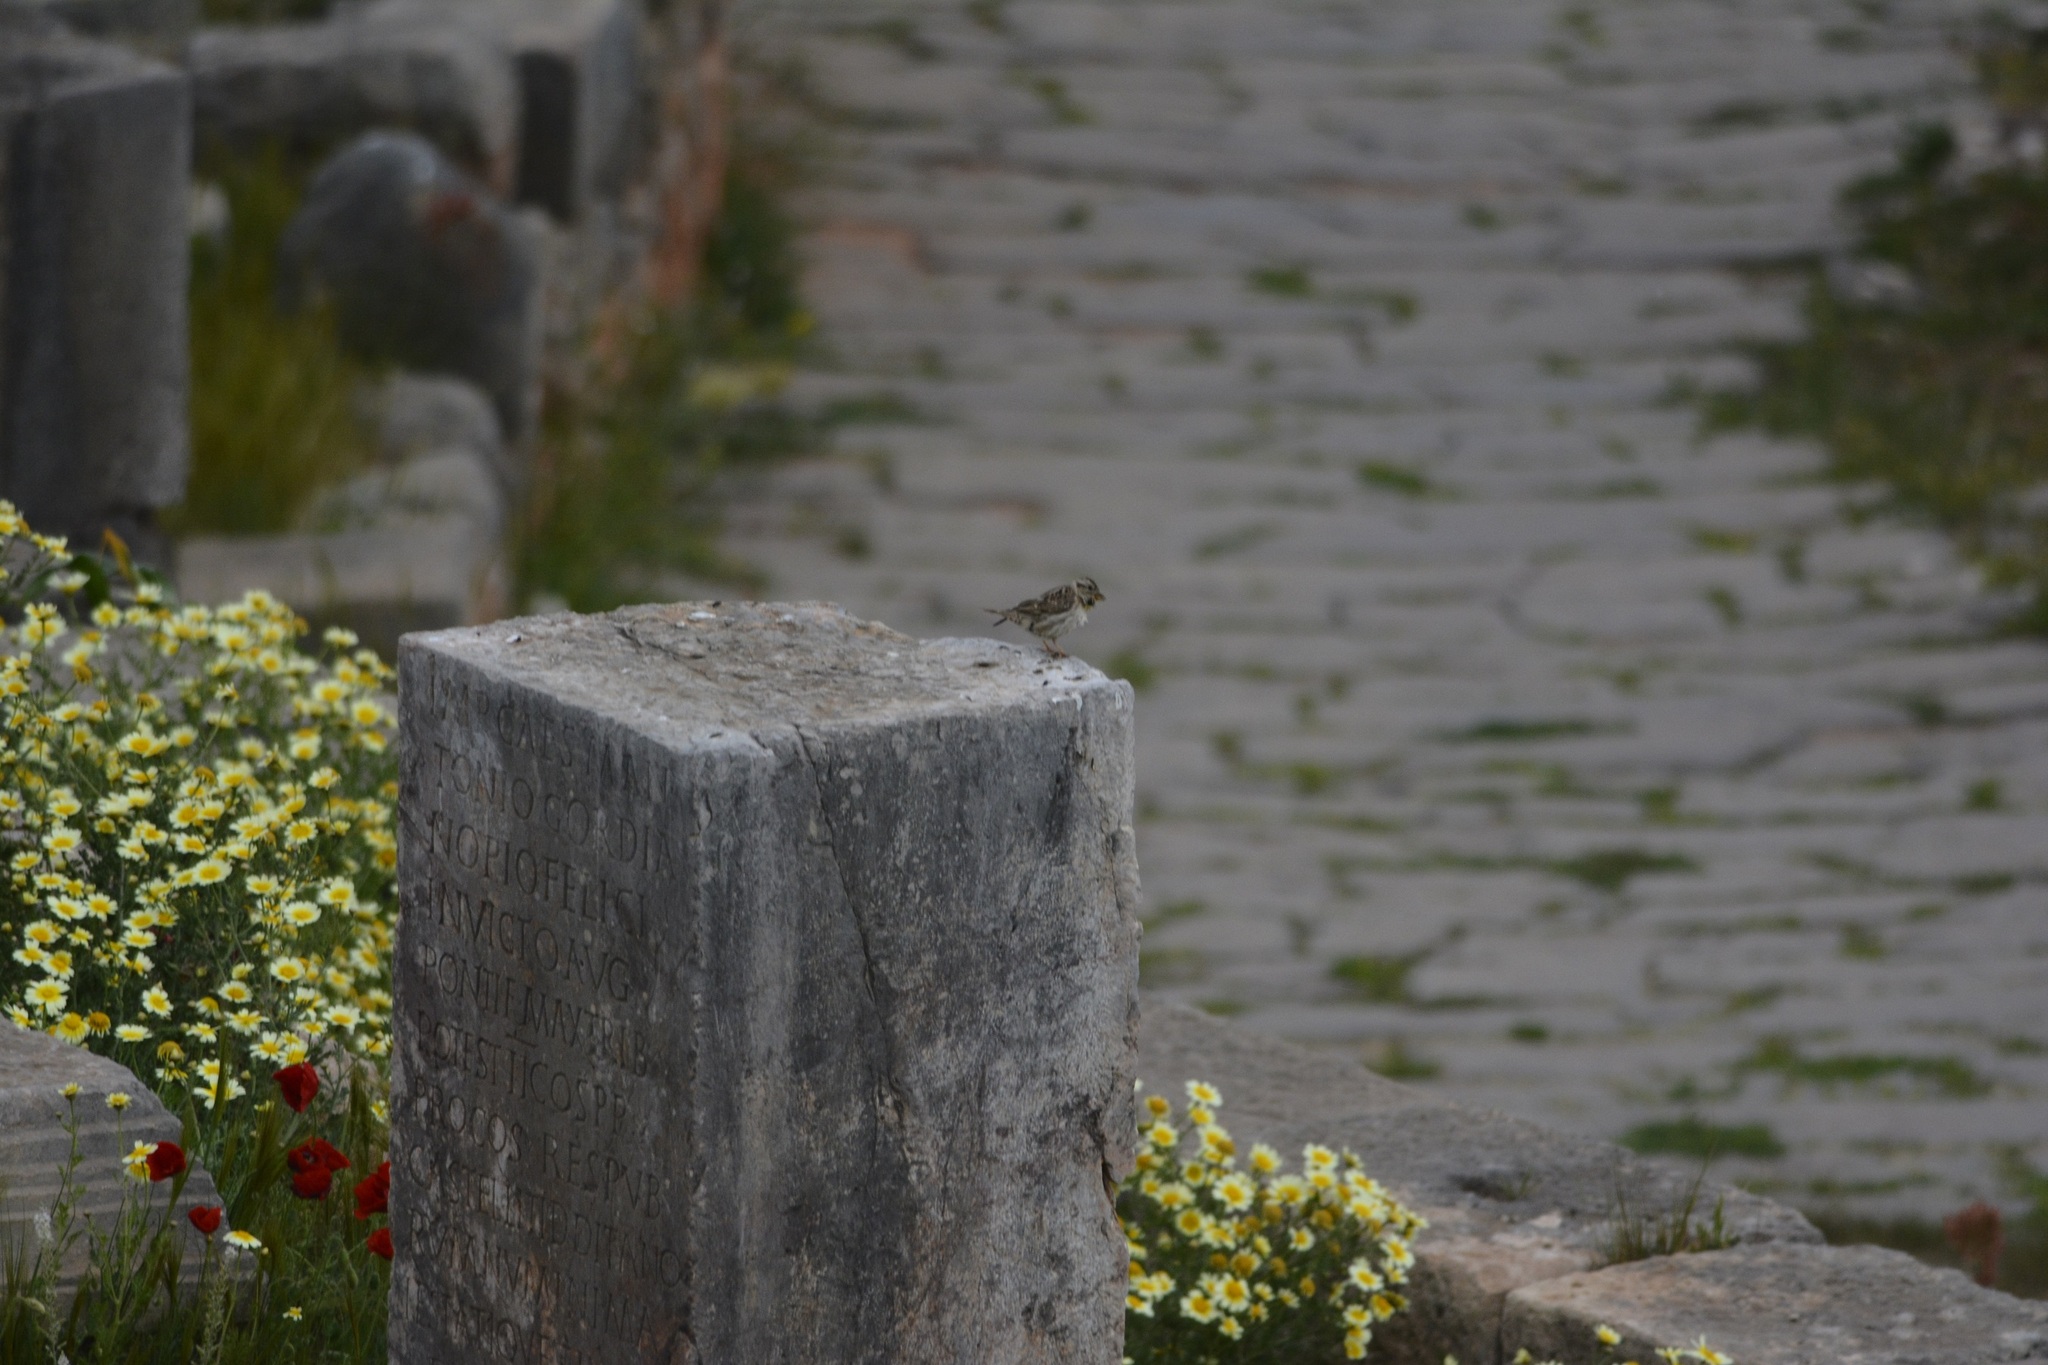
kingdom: Animalia
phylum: Chordata
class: Aves
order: Passeriformes
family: Passeridae
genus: Petronia
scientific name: Petronia petronia
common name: Rock sparrow
